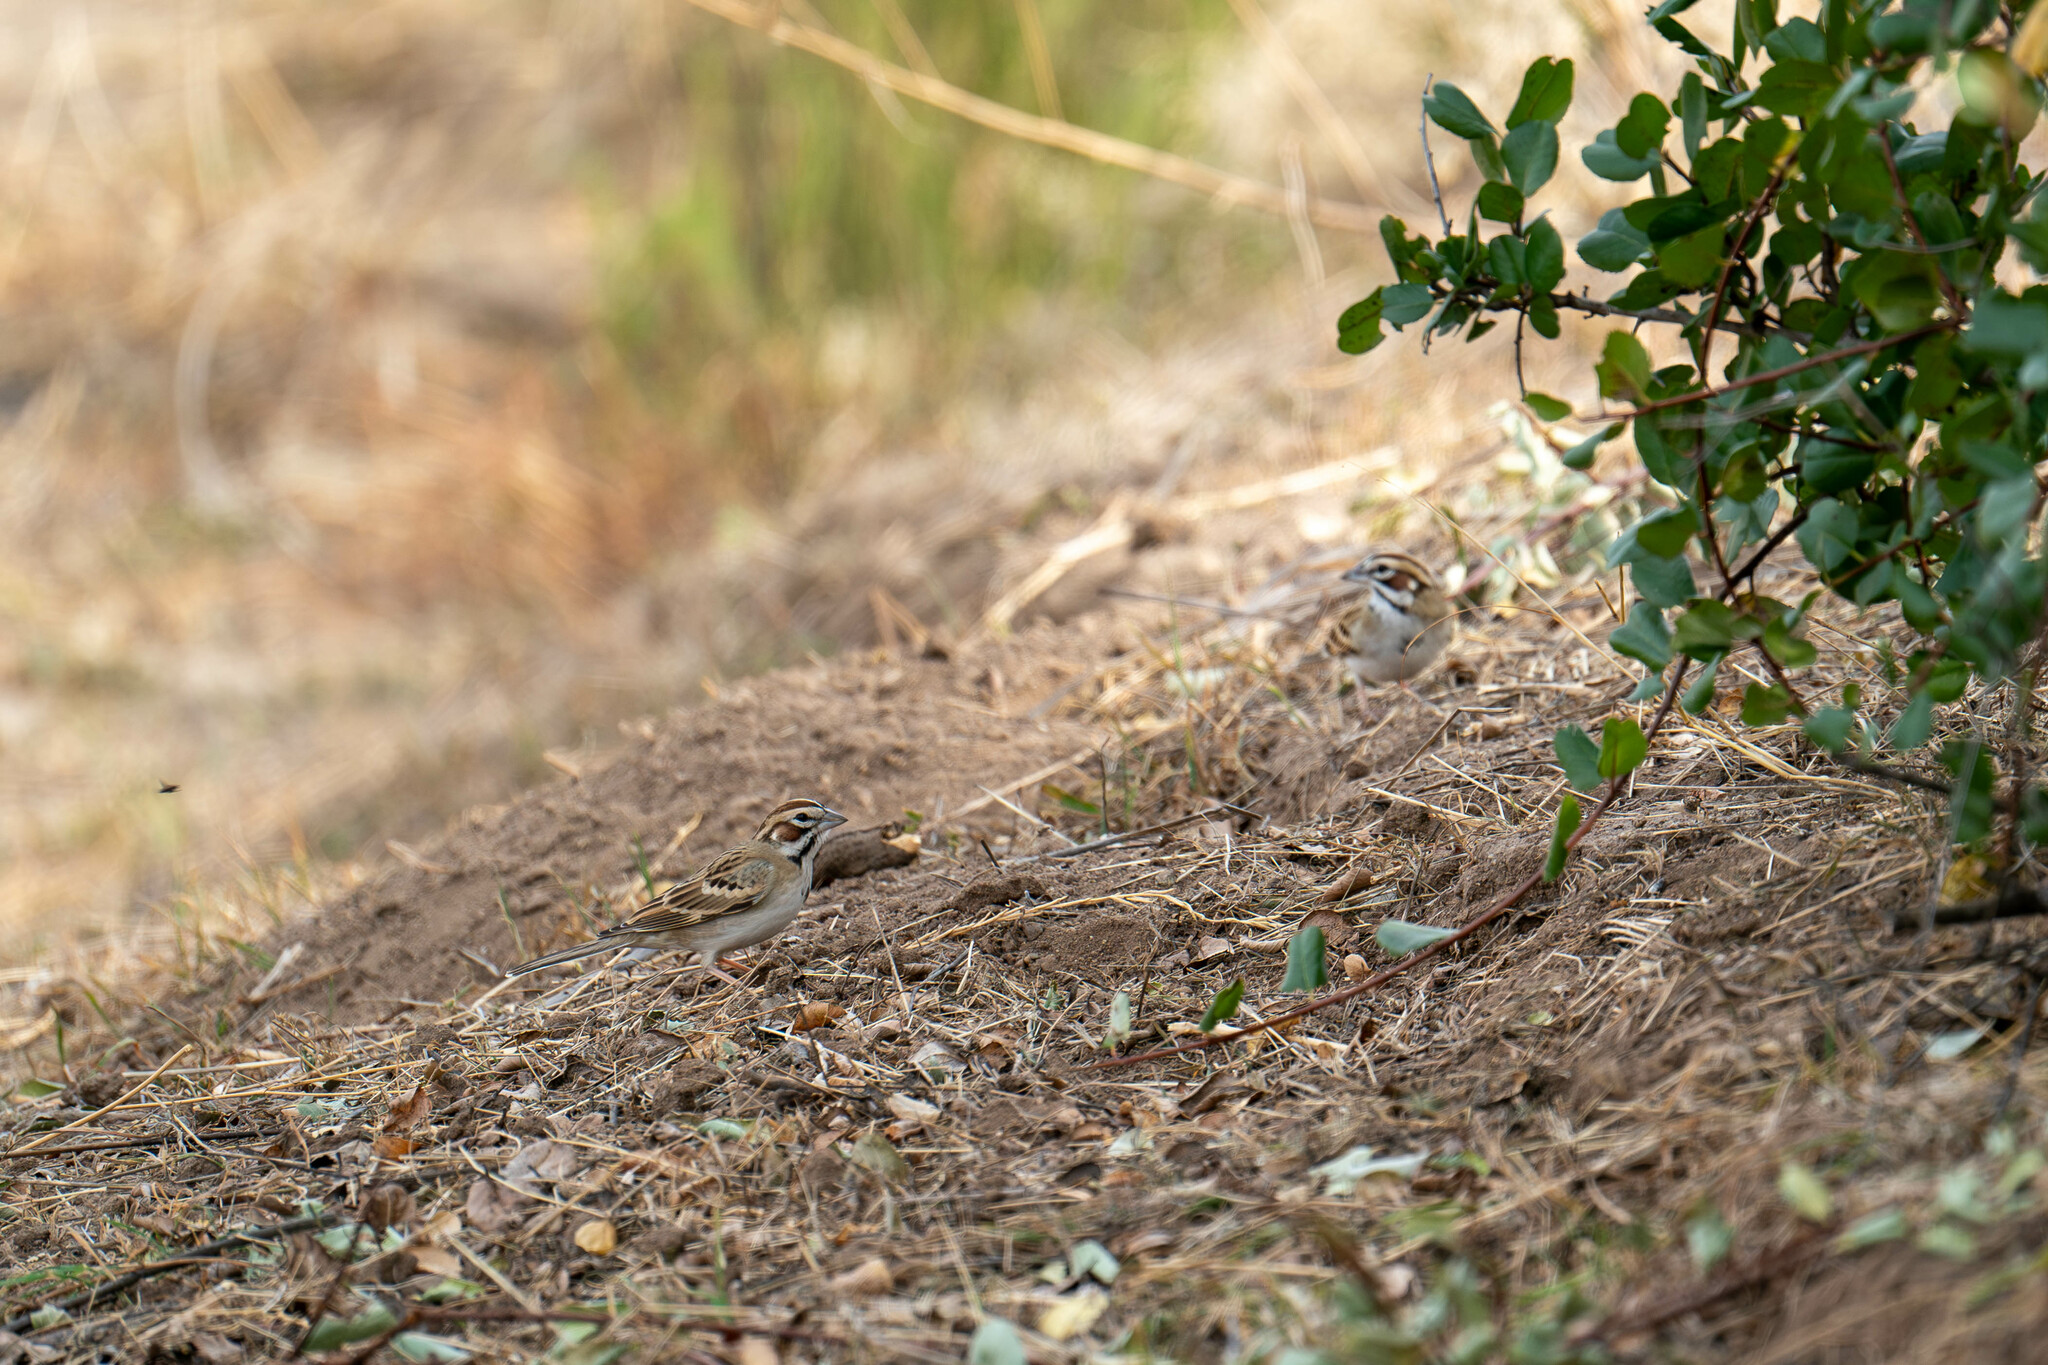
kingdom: Animalia
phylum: Chordata
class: Aves
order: Passeriformes
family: Passerellidae
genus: Chondestes
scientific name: Chondestes grammacus
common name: Lark sparrow
